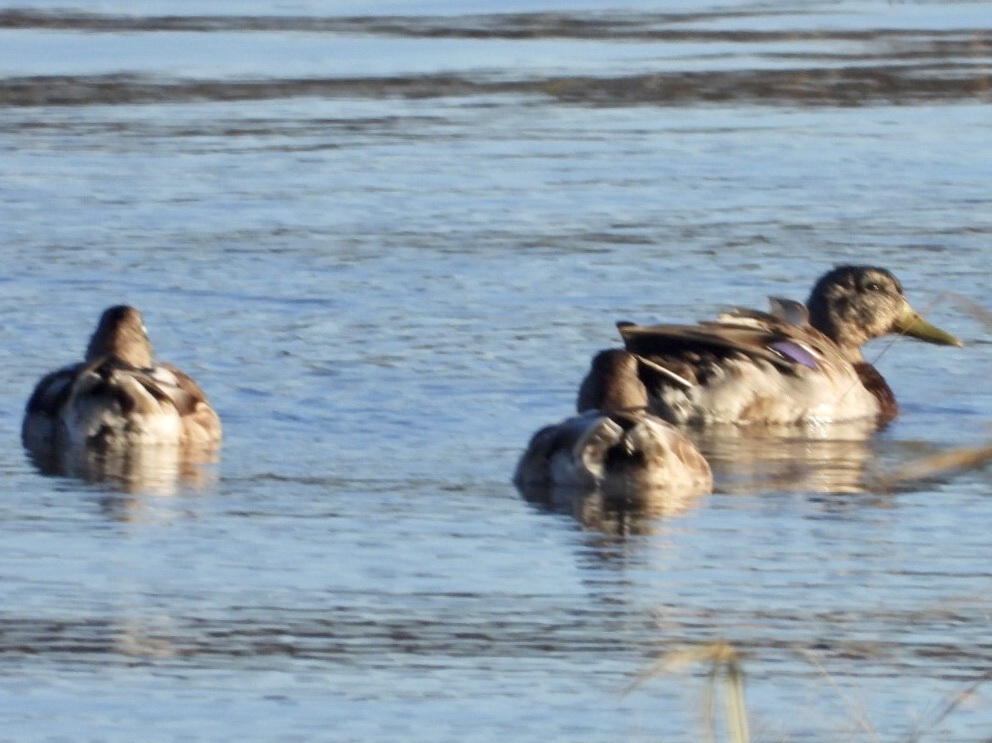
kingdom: Animalia
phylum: Chordata
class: Aves
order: Anseriformes
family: Anatidae
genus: Anas
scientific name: Anas platyrhynchos
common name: Mallard
